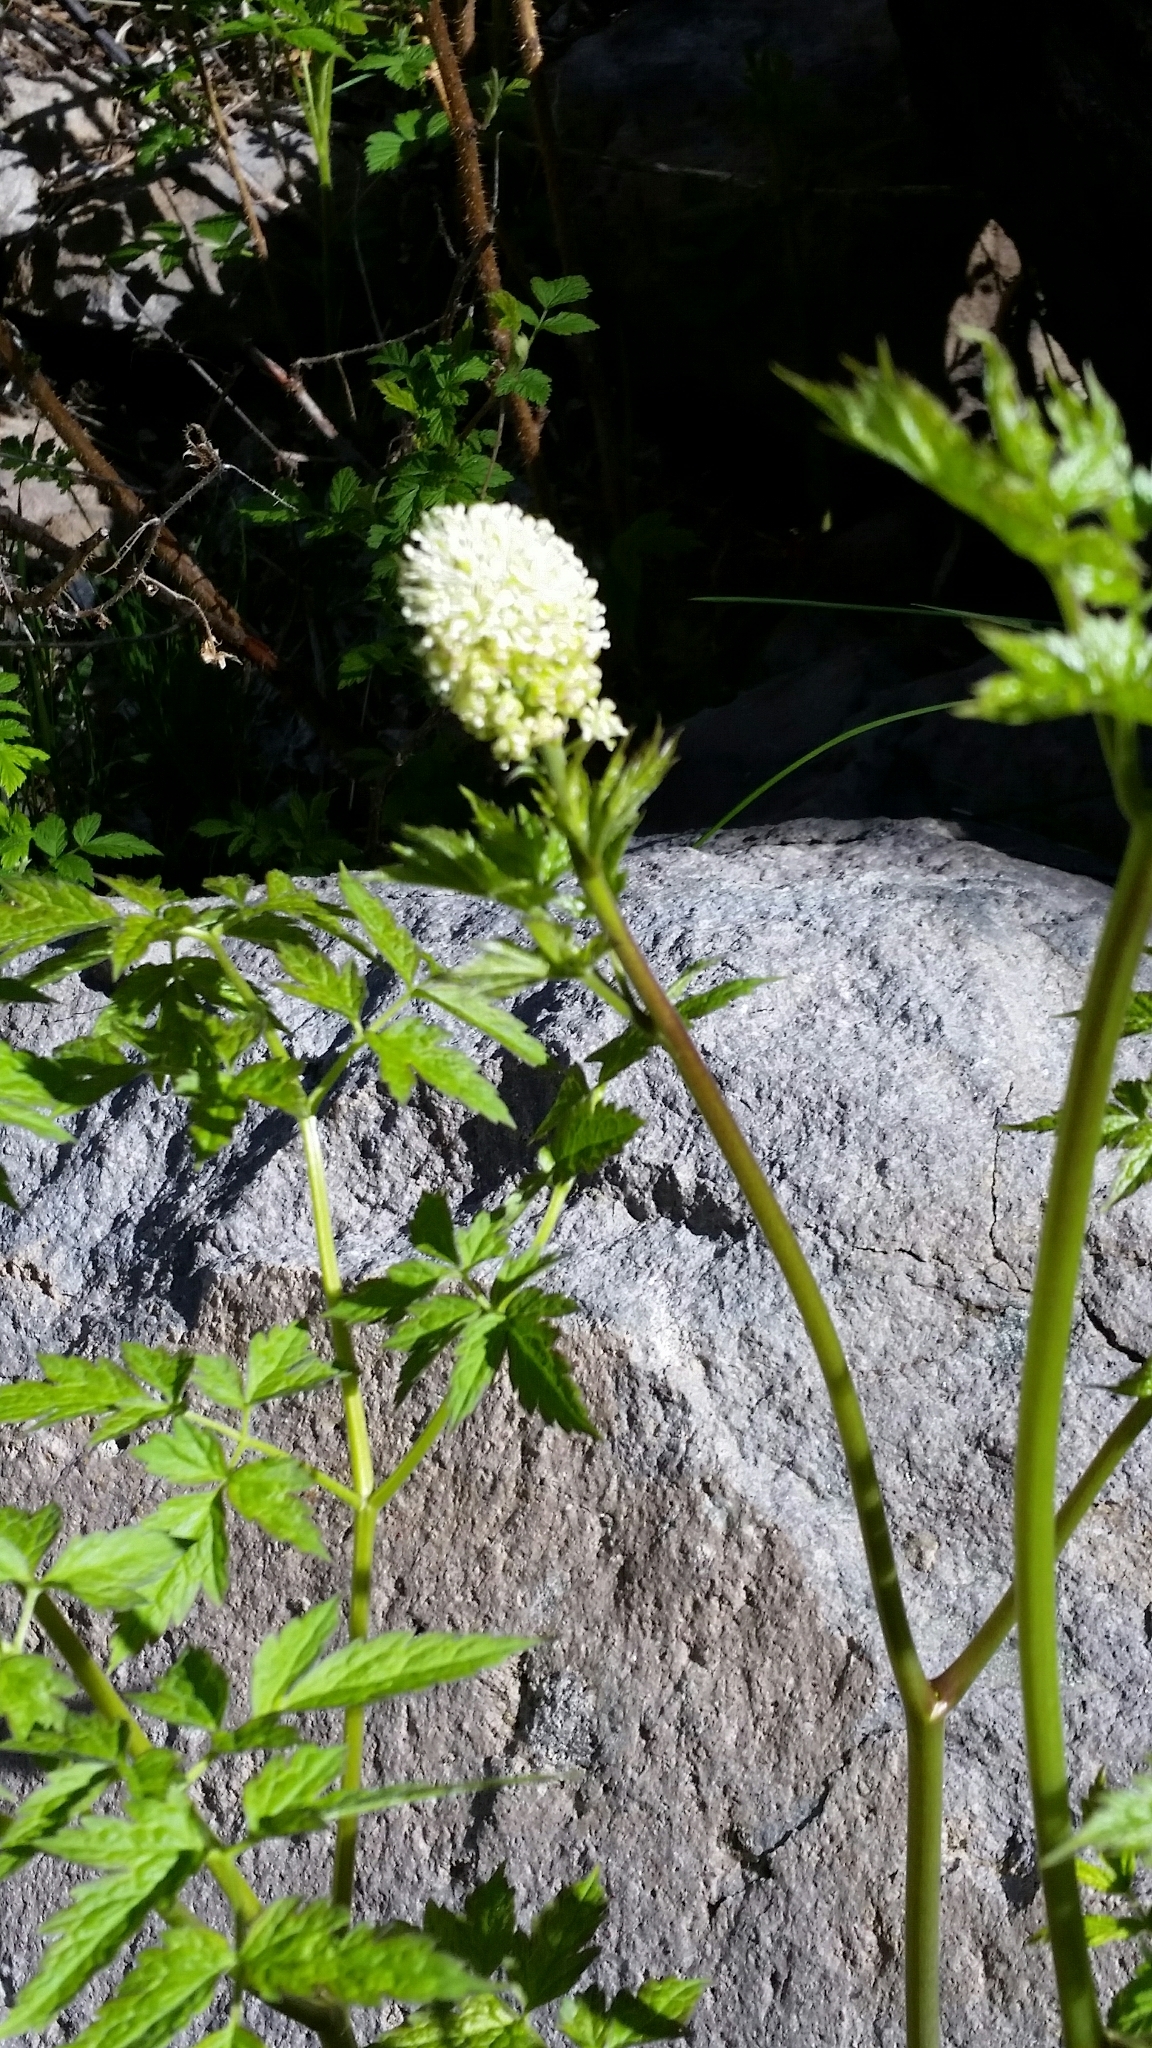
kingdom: Plantae
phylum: Tracheophyta
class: Magnoliopsida
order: Ranunculales
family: Ranunculaceae
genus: Actaea
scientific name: Actaea rubra
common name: Red baneberry
